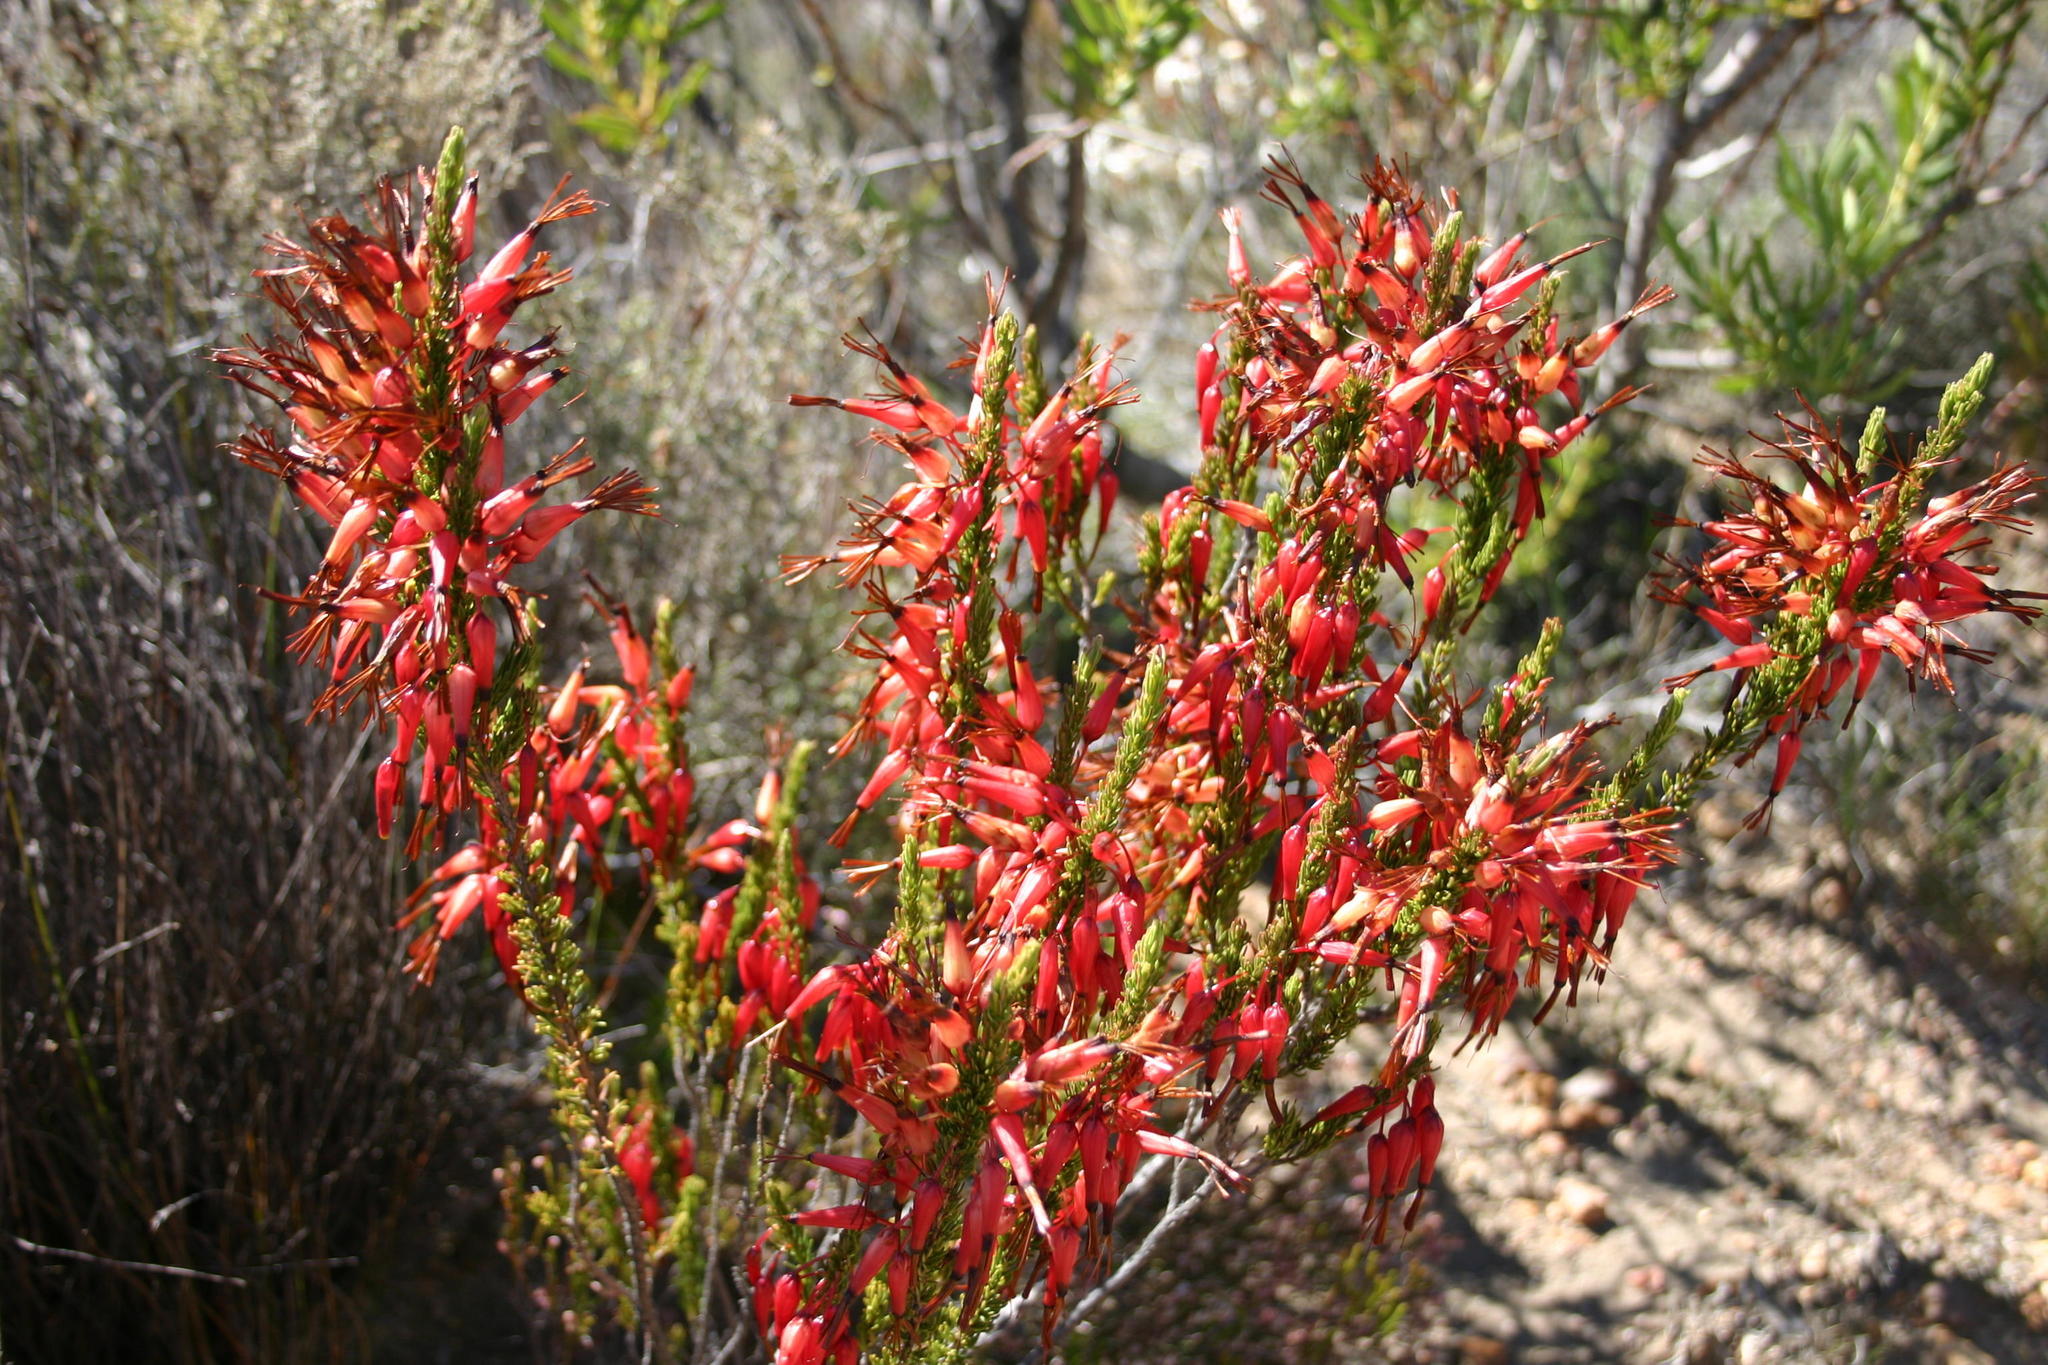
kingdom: Plantae
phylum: Tracheophyta
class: Magnoliopsida
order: Ericales
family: Ericaceae
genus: Erica
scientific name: Erica plukenetii
